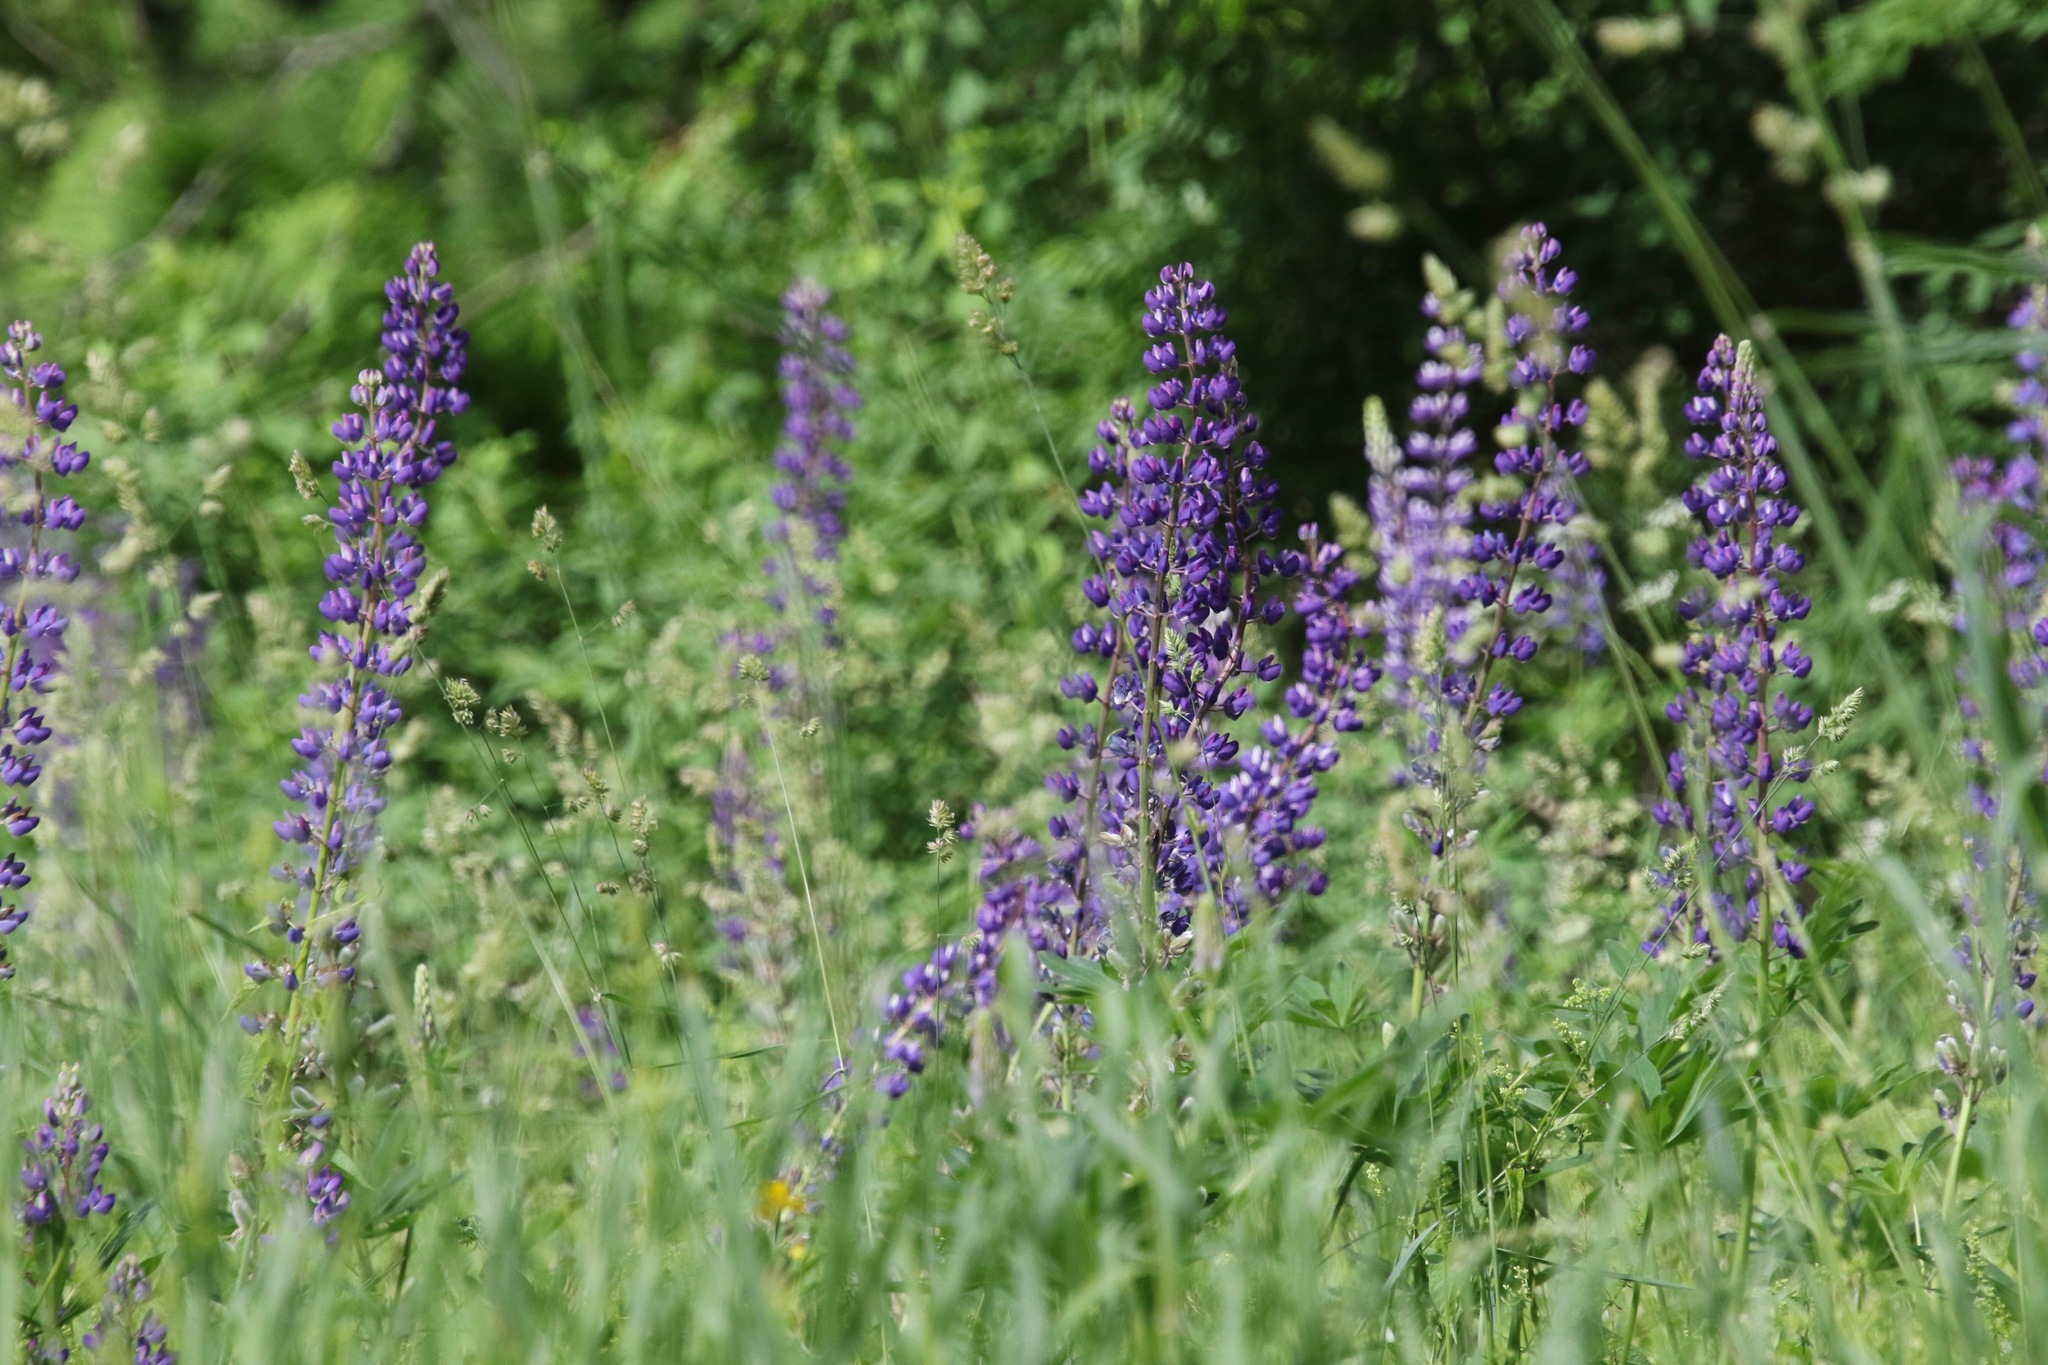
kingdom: Plantae
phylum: Tracheophyta
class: Magnoliopsida
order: Fabales
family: Fabaceae
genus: Lupinus
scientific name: Lupinus polyphyllus
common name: Garden lupin
